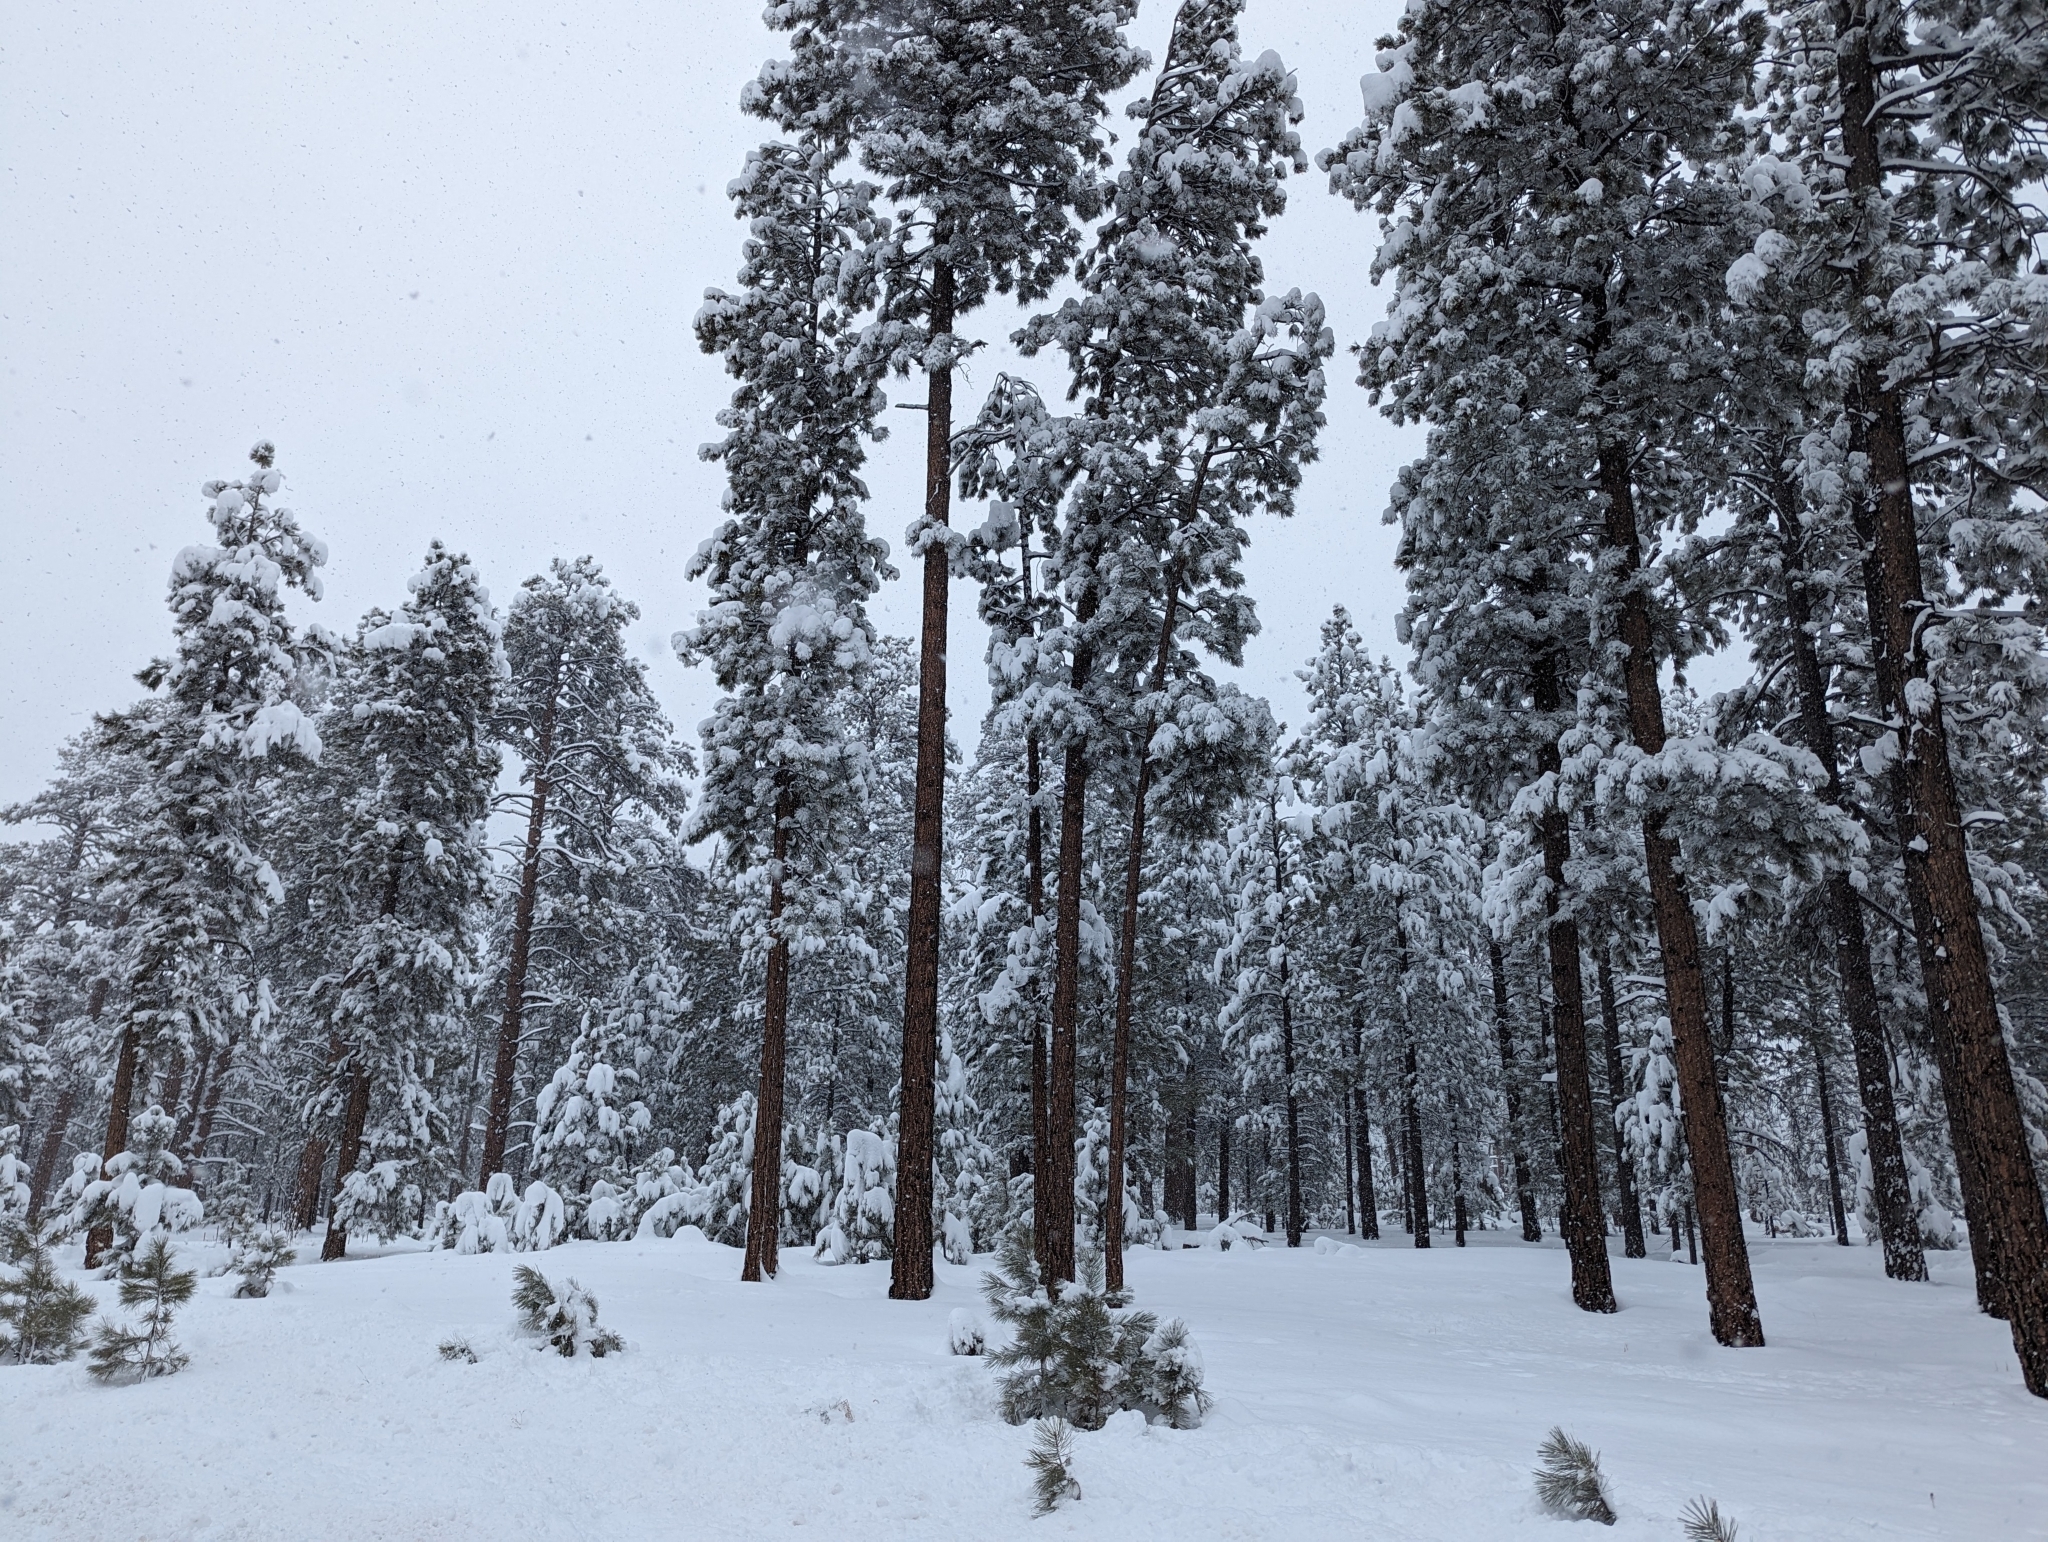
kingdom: Plantae
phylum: Tracheophyta
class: Pinopsida
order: Pinales
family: Pinaceae
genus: Pinus
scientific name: Pinus ponderosa
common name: Western yellow-pine
